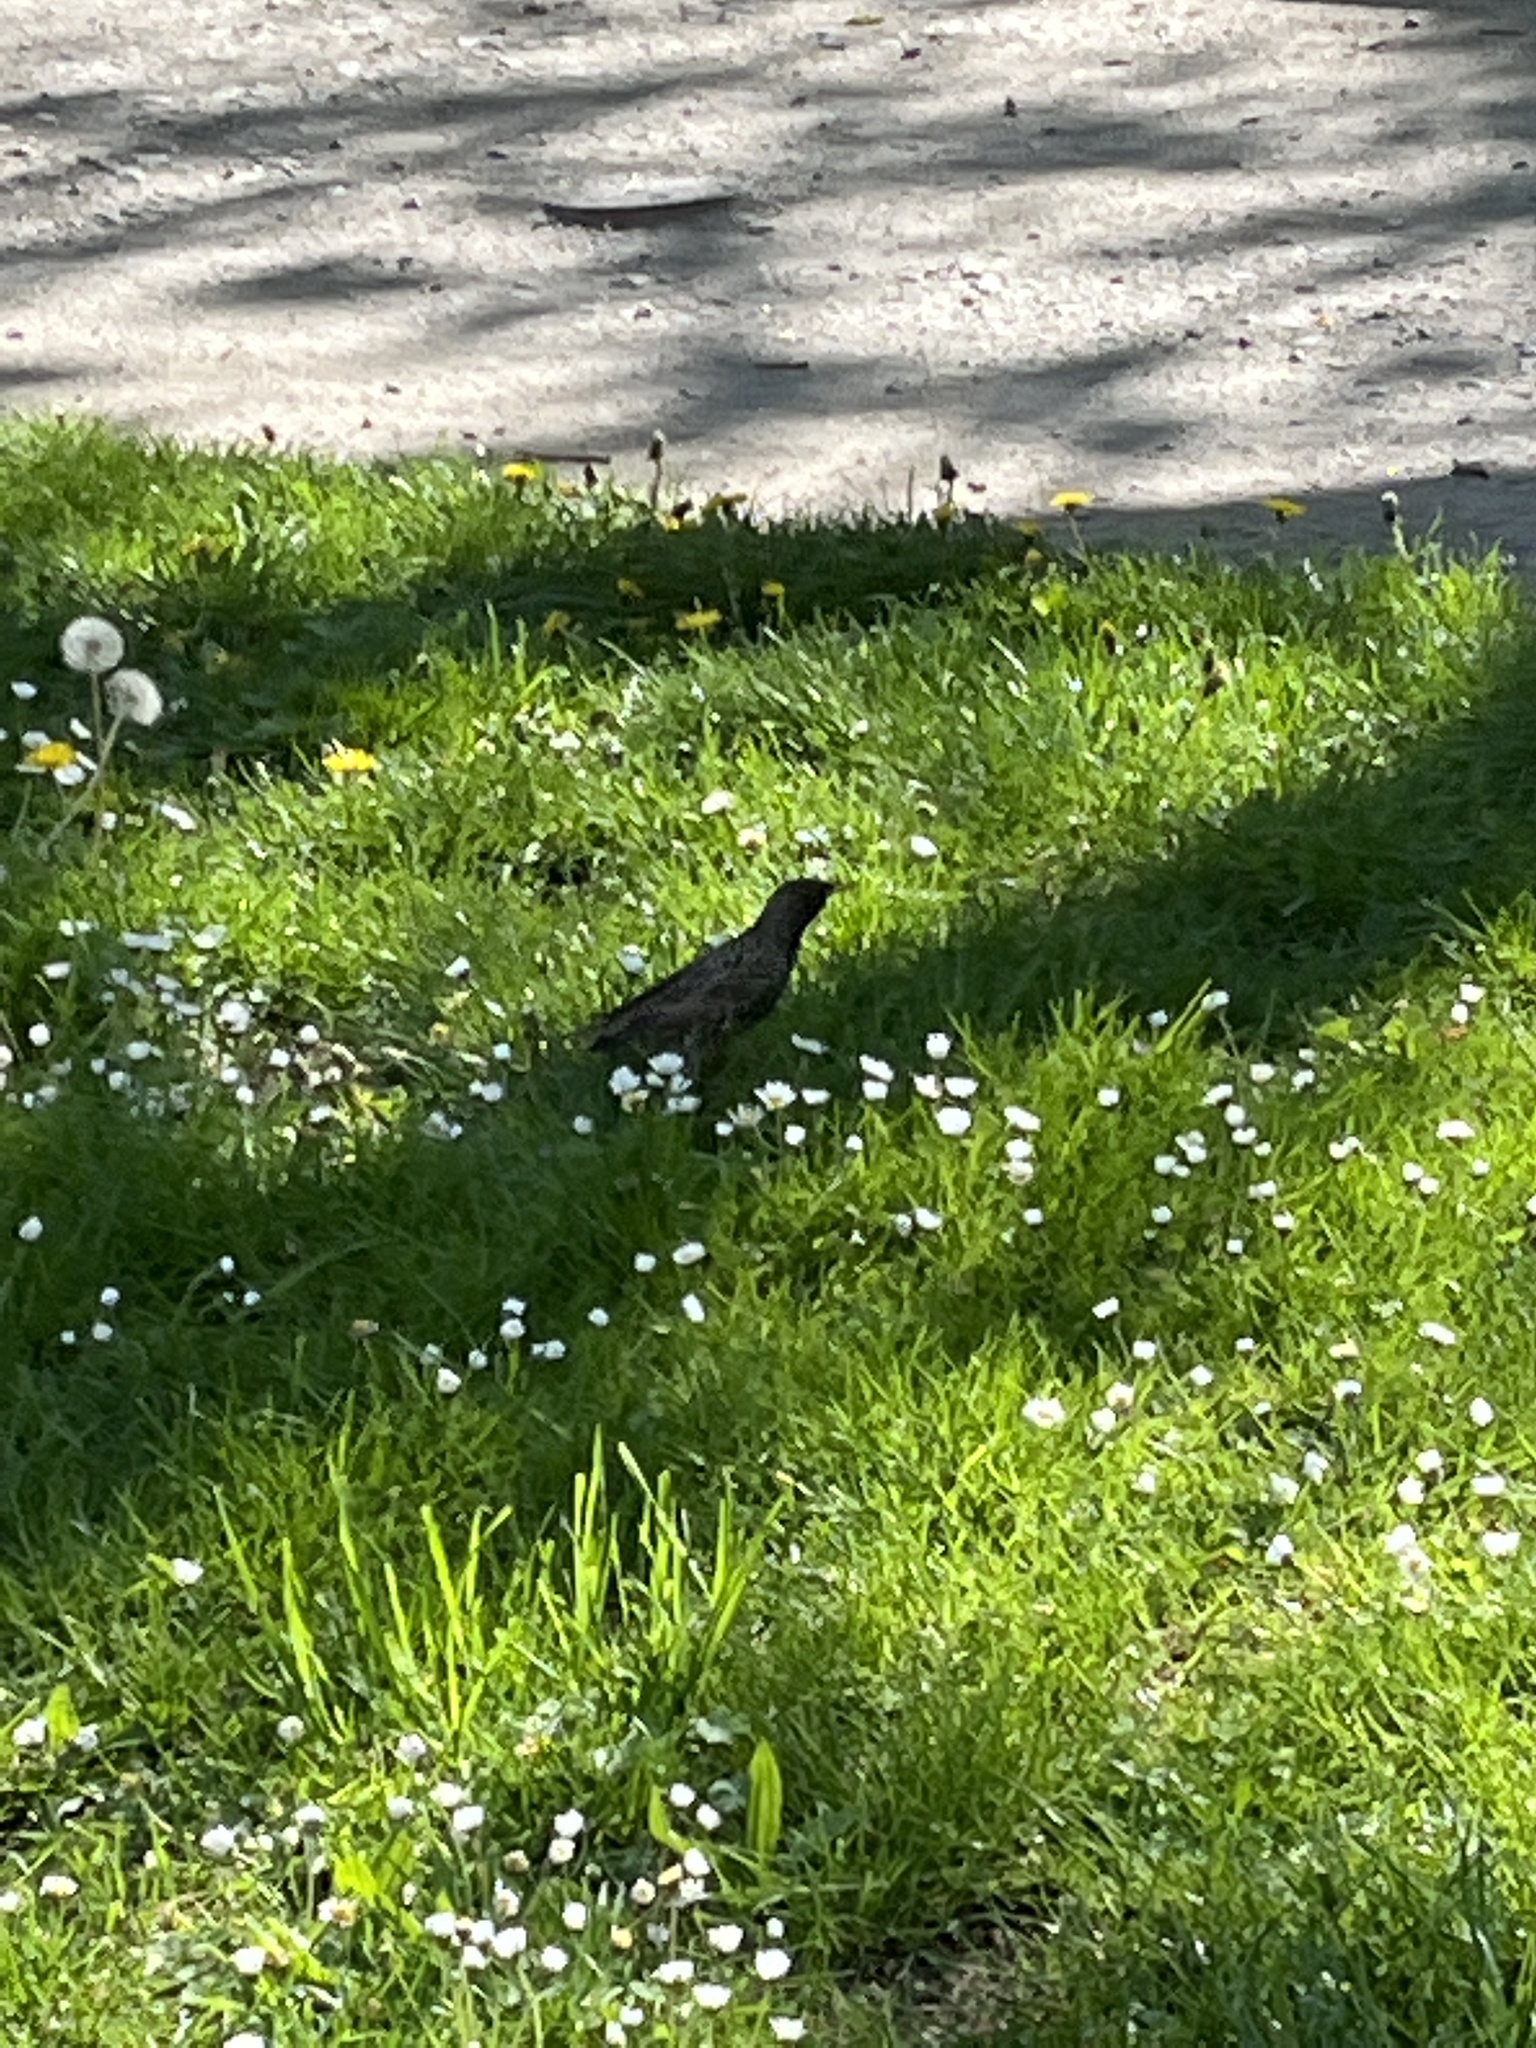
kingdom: Animalia
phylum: Chordata
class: Aves
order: Passeriformes
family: Sturnidae
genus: Sturnus
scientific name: Sturnus vulgaris
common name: Common starling
